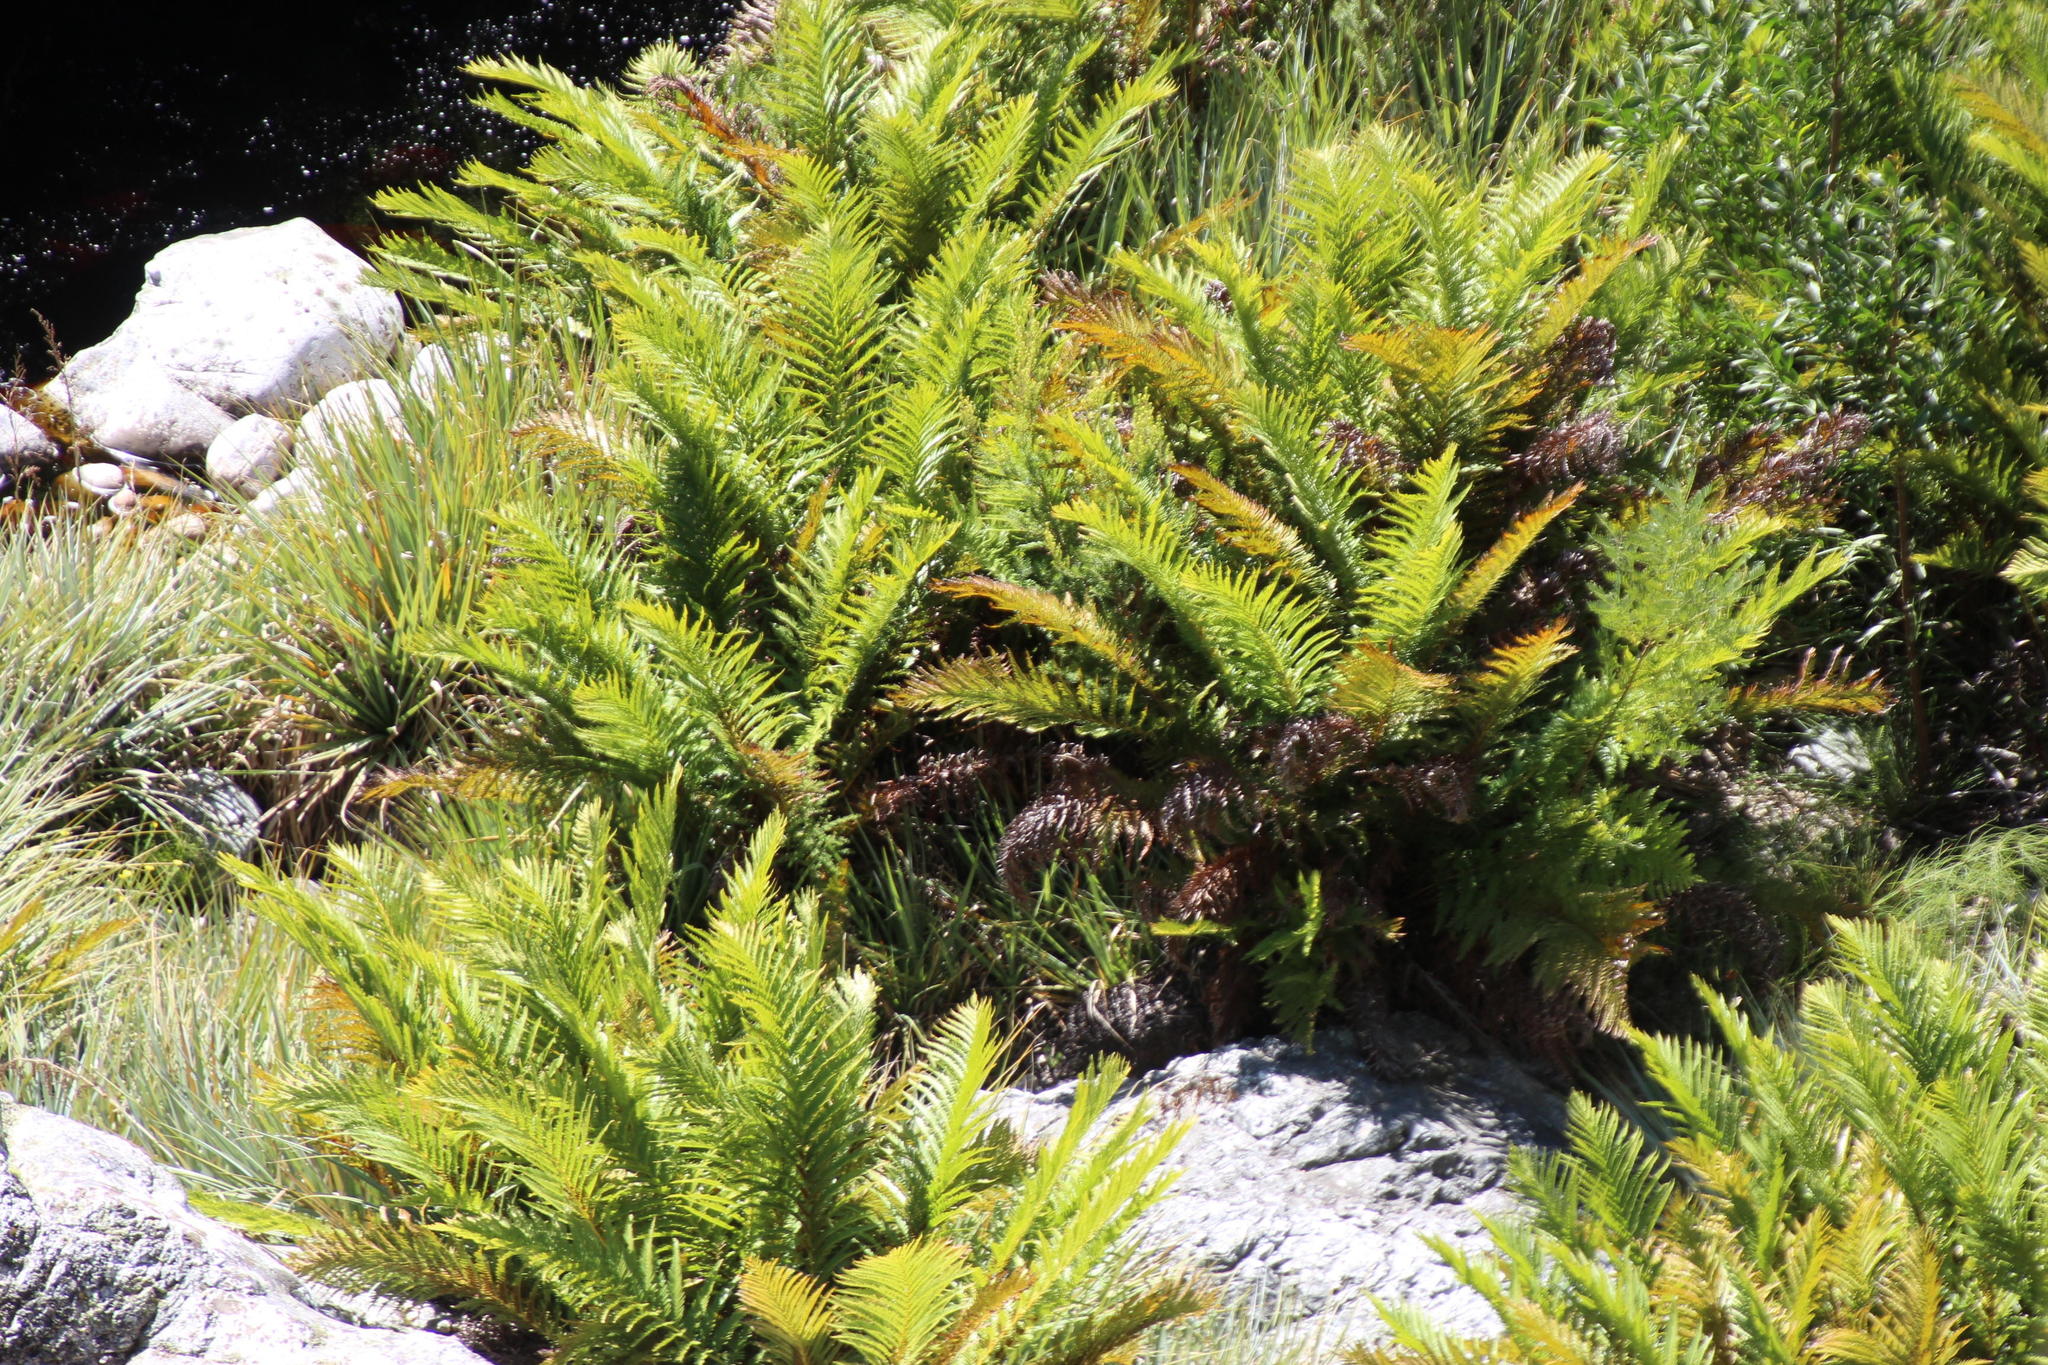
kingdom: Plantae
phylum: Tracheophyta
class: Polypodiopsida
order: Osmundales
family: Osmundaceae
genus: Todea
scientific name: Todea barbara
